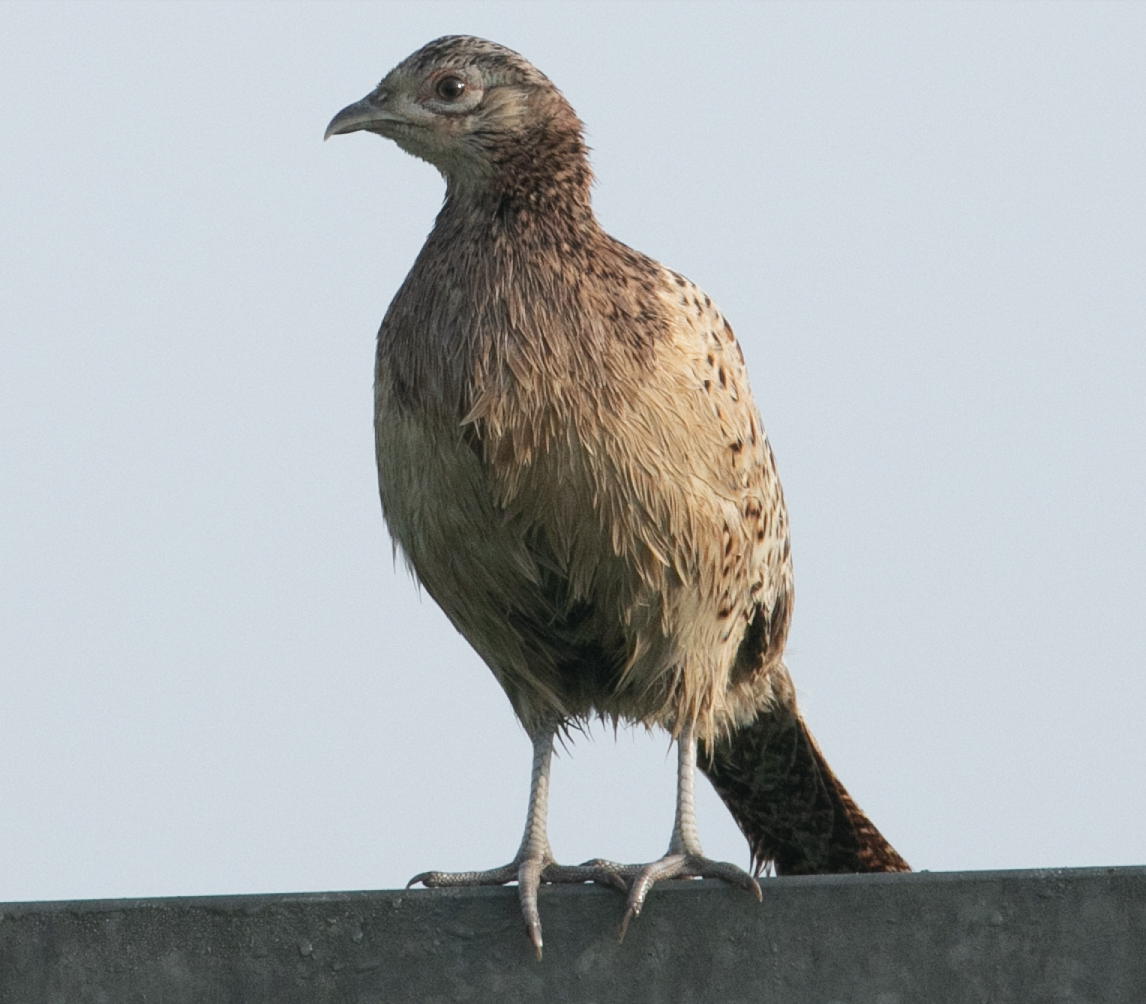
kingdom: Animalia
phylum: Chordata
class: Aves
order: Galliformes
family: Phasianidae
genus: Phasianus
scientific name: Phasianus colchicus
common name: Common pheasant
